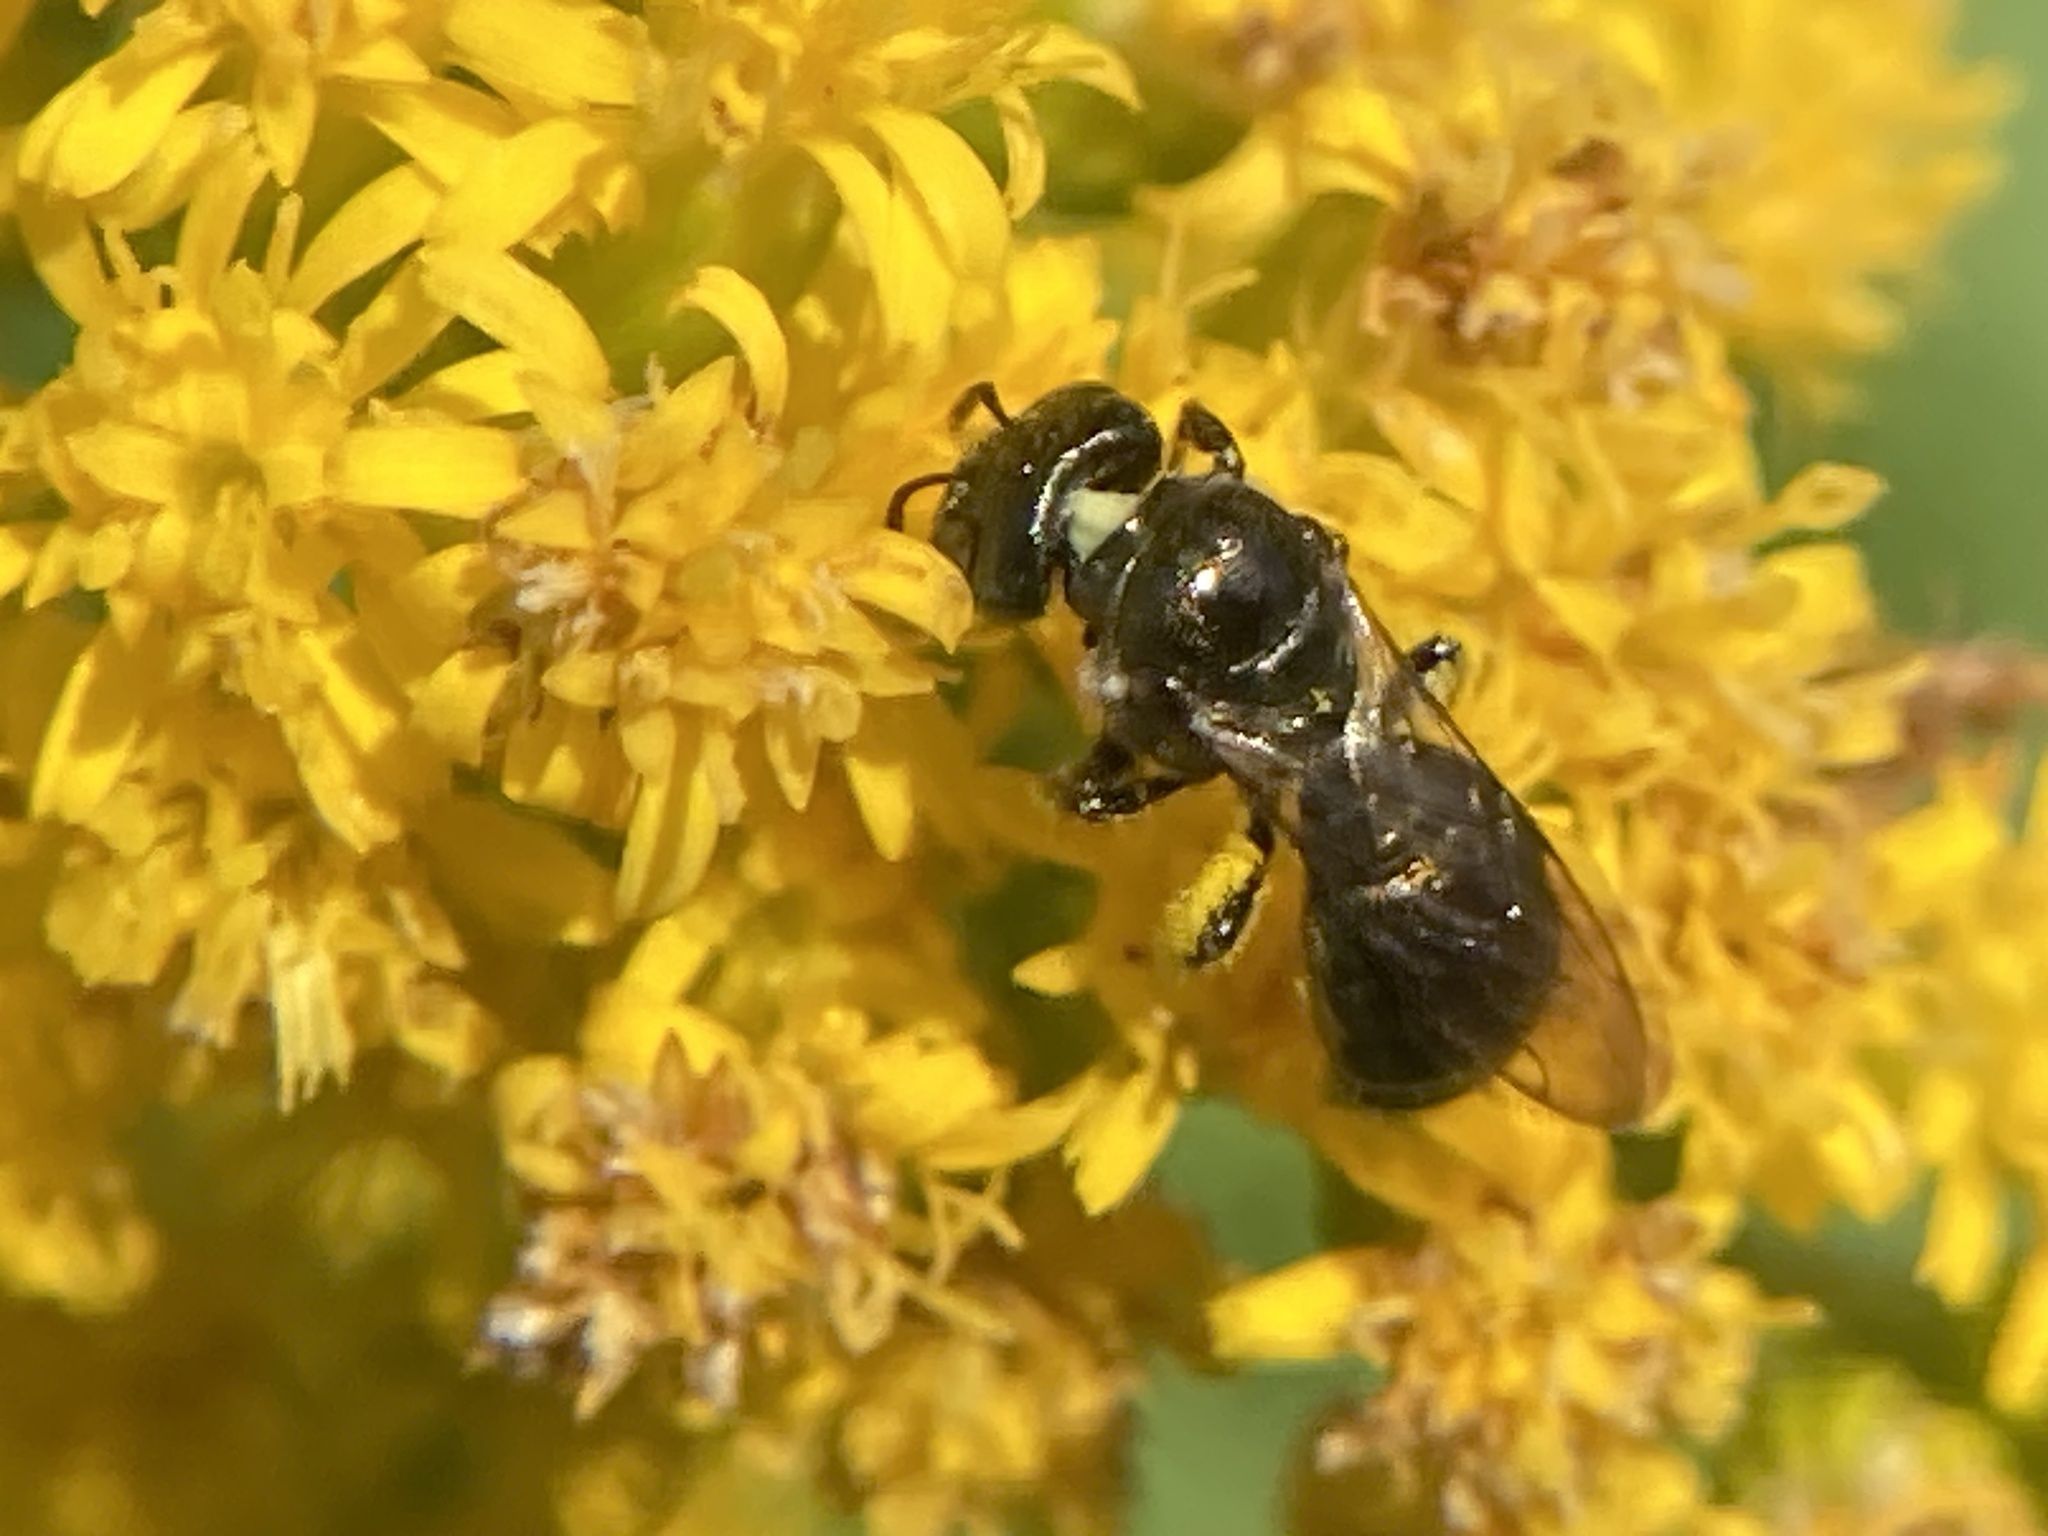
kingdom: Animalia
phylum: Arthropoda
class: Insecta
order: Hymenoptera
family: Apidae
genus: Zadontomerus
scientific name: Zadontomerus
